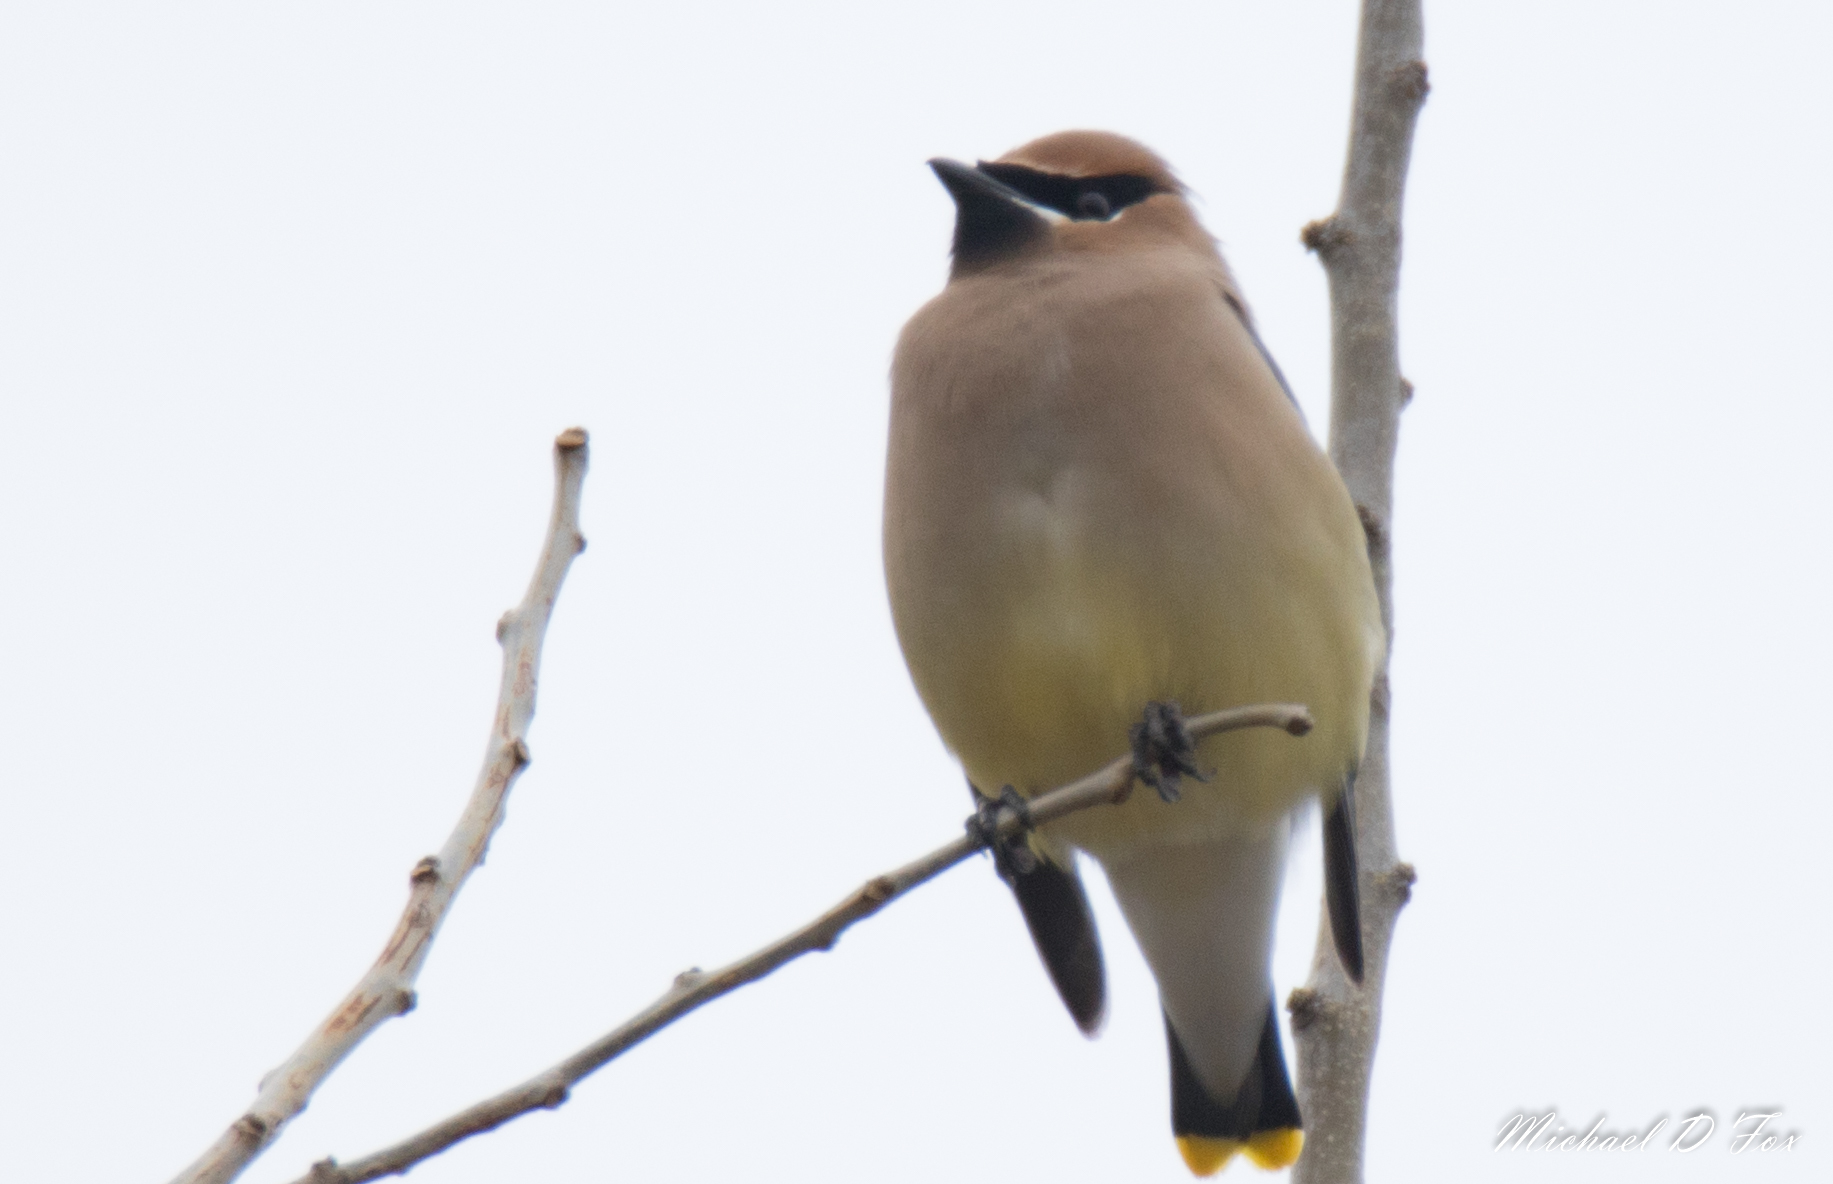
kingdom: Animalia
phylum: Chordata
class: Aves
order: Passeriformes
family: Bombycillidae
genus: Bombycilla
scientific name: Bombycilla cedrorum
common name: Cedar waxwing
